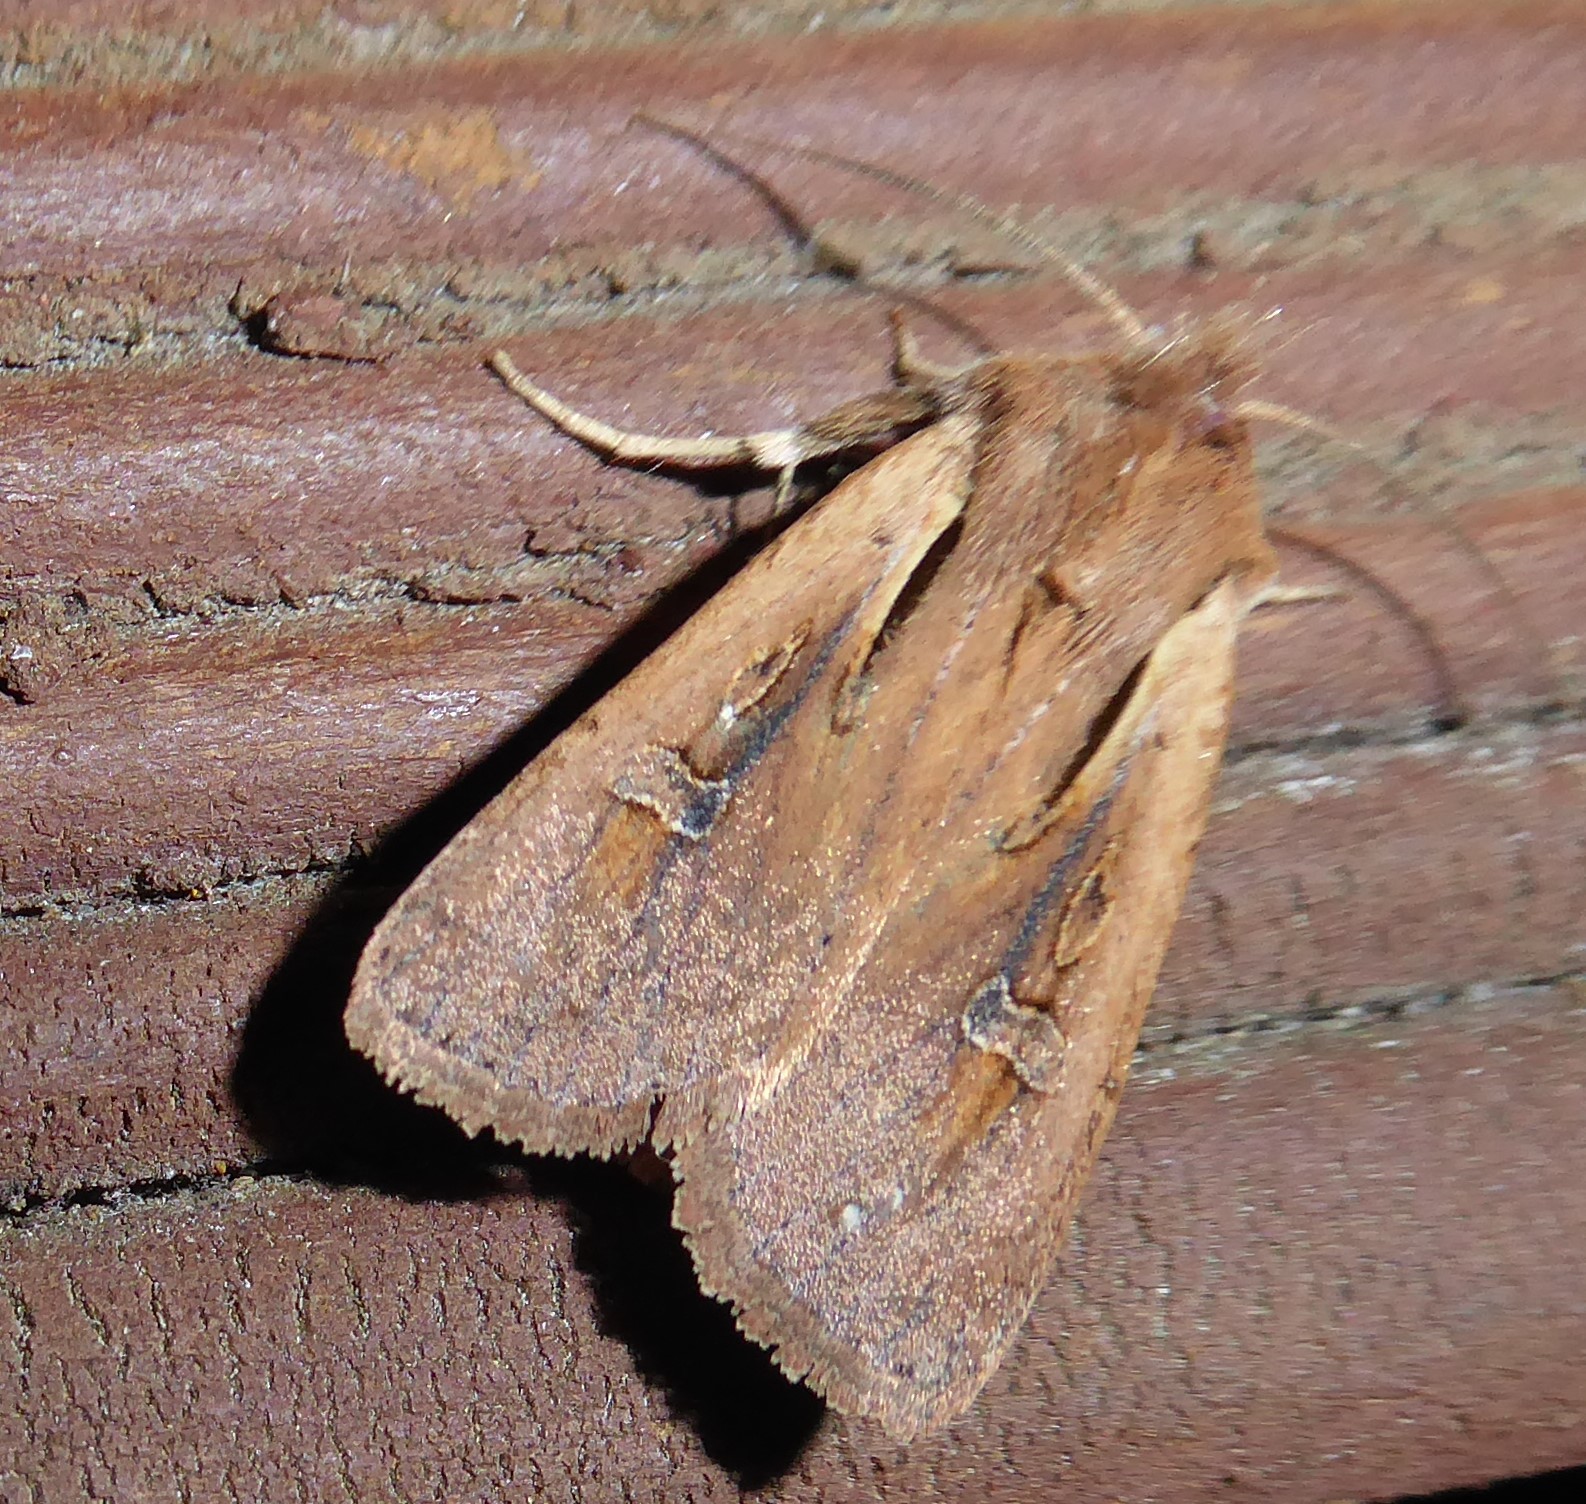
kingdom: Animalia
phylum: Arthropoda
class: Insecta
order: Lepidoptera
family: Noctuidae
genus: Ichneutica
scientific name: Ichneutica atristriga
